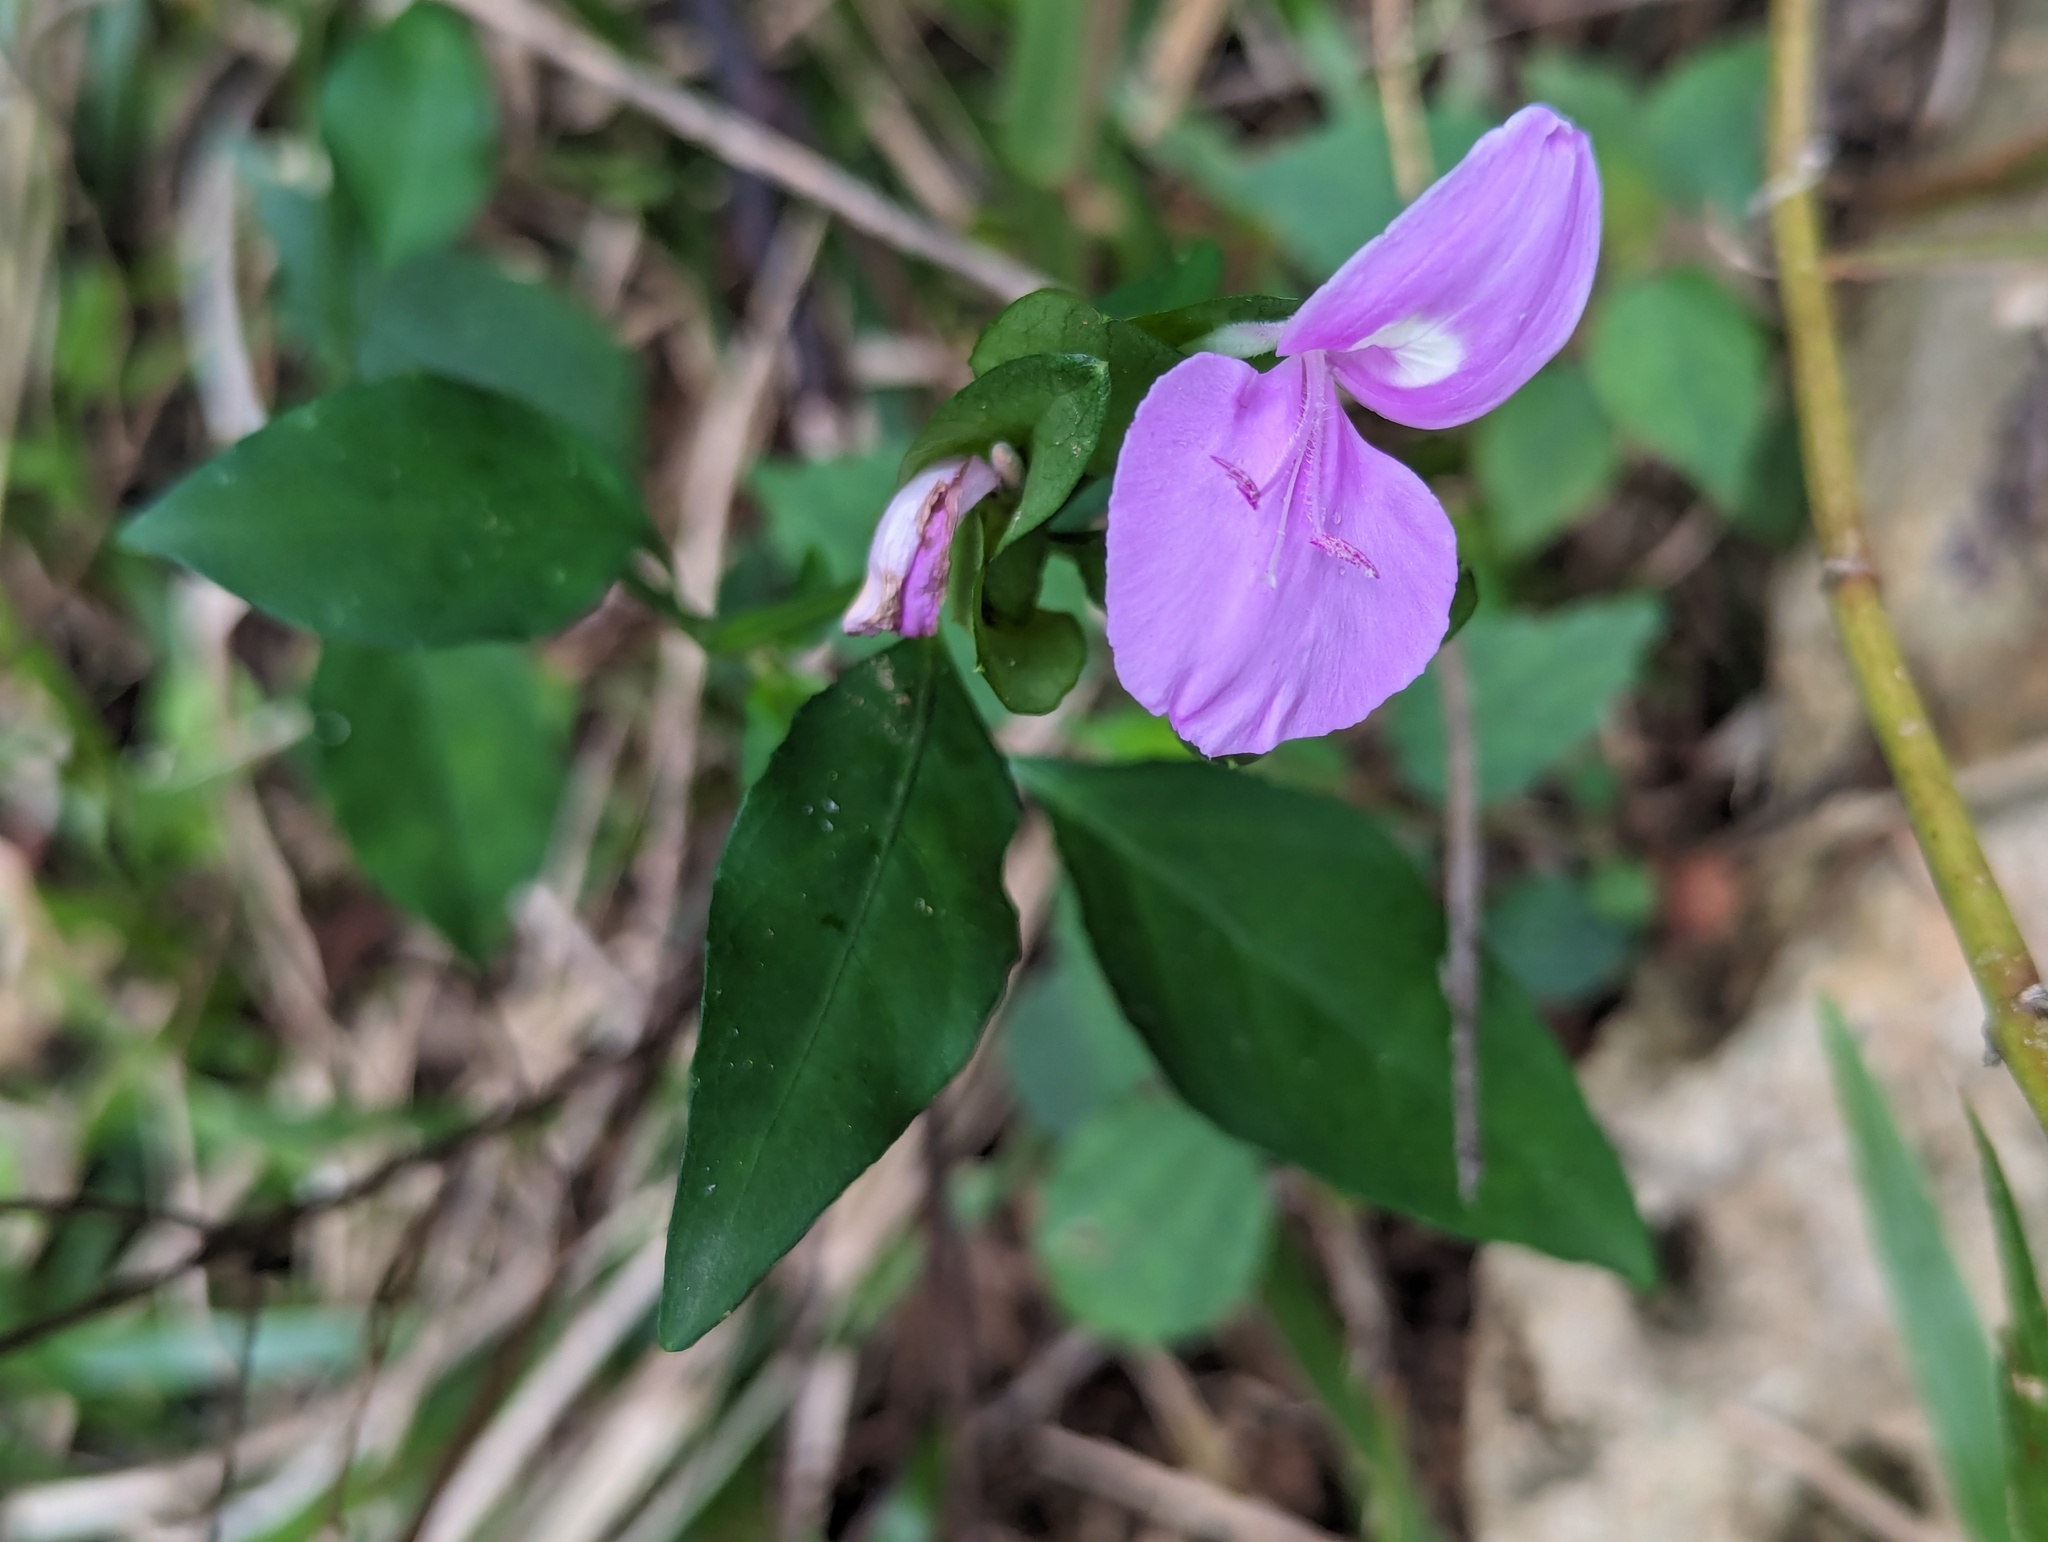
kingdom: Plantae
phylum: Tracheophyta
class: Magnoliopsida
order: Lamiales
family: Acanthaceae
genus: Dicliptera
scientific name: Dicliptera tinctoria
